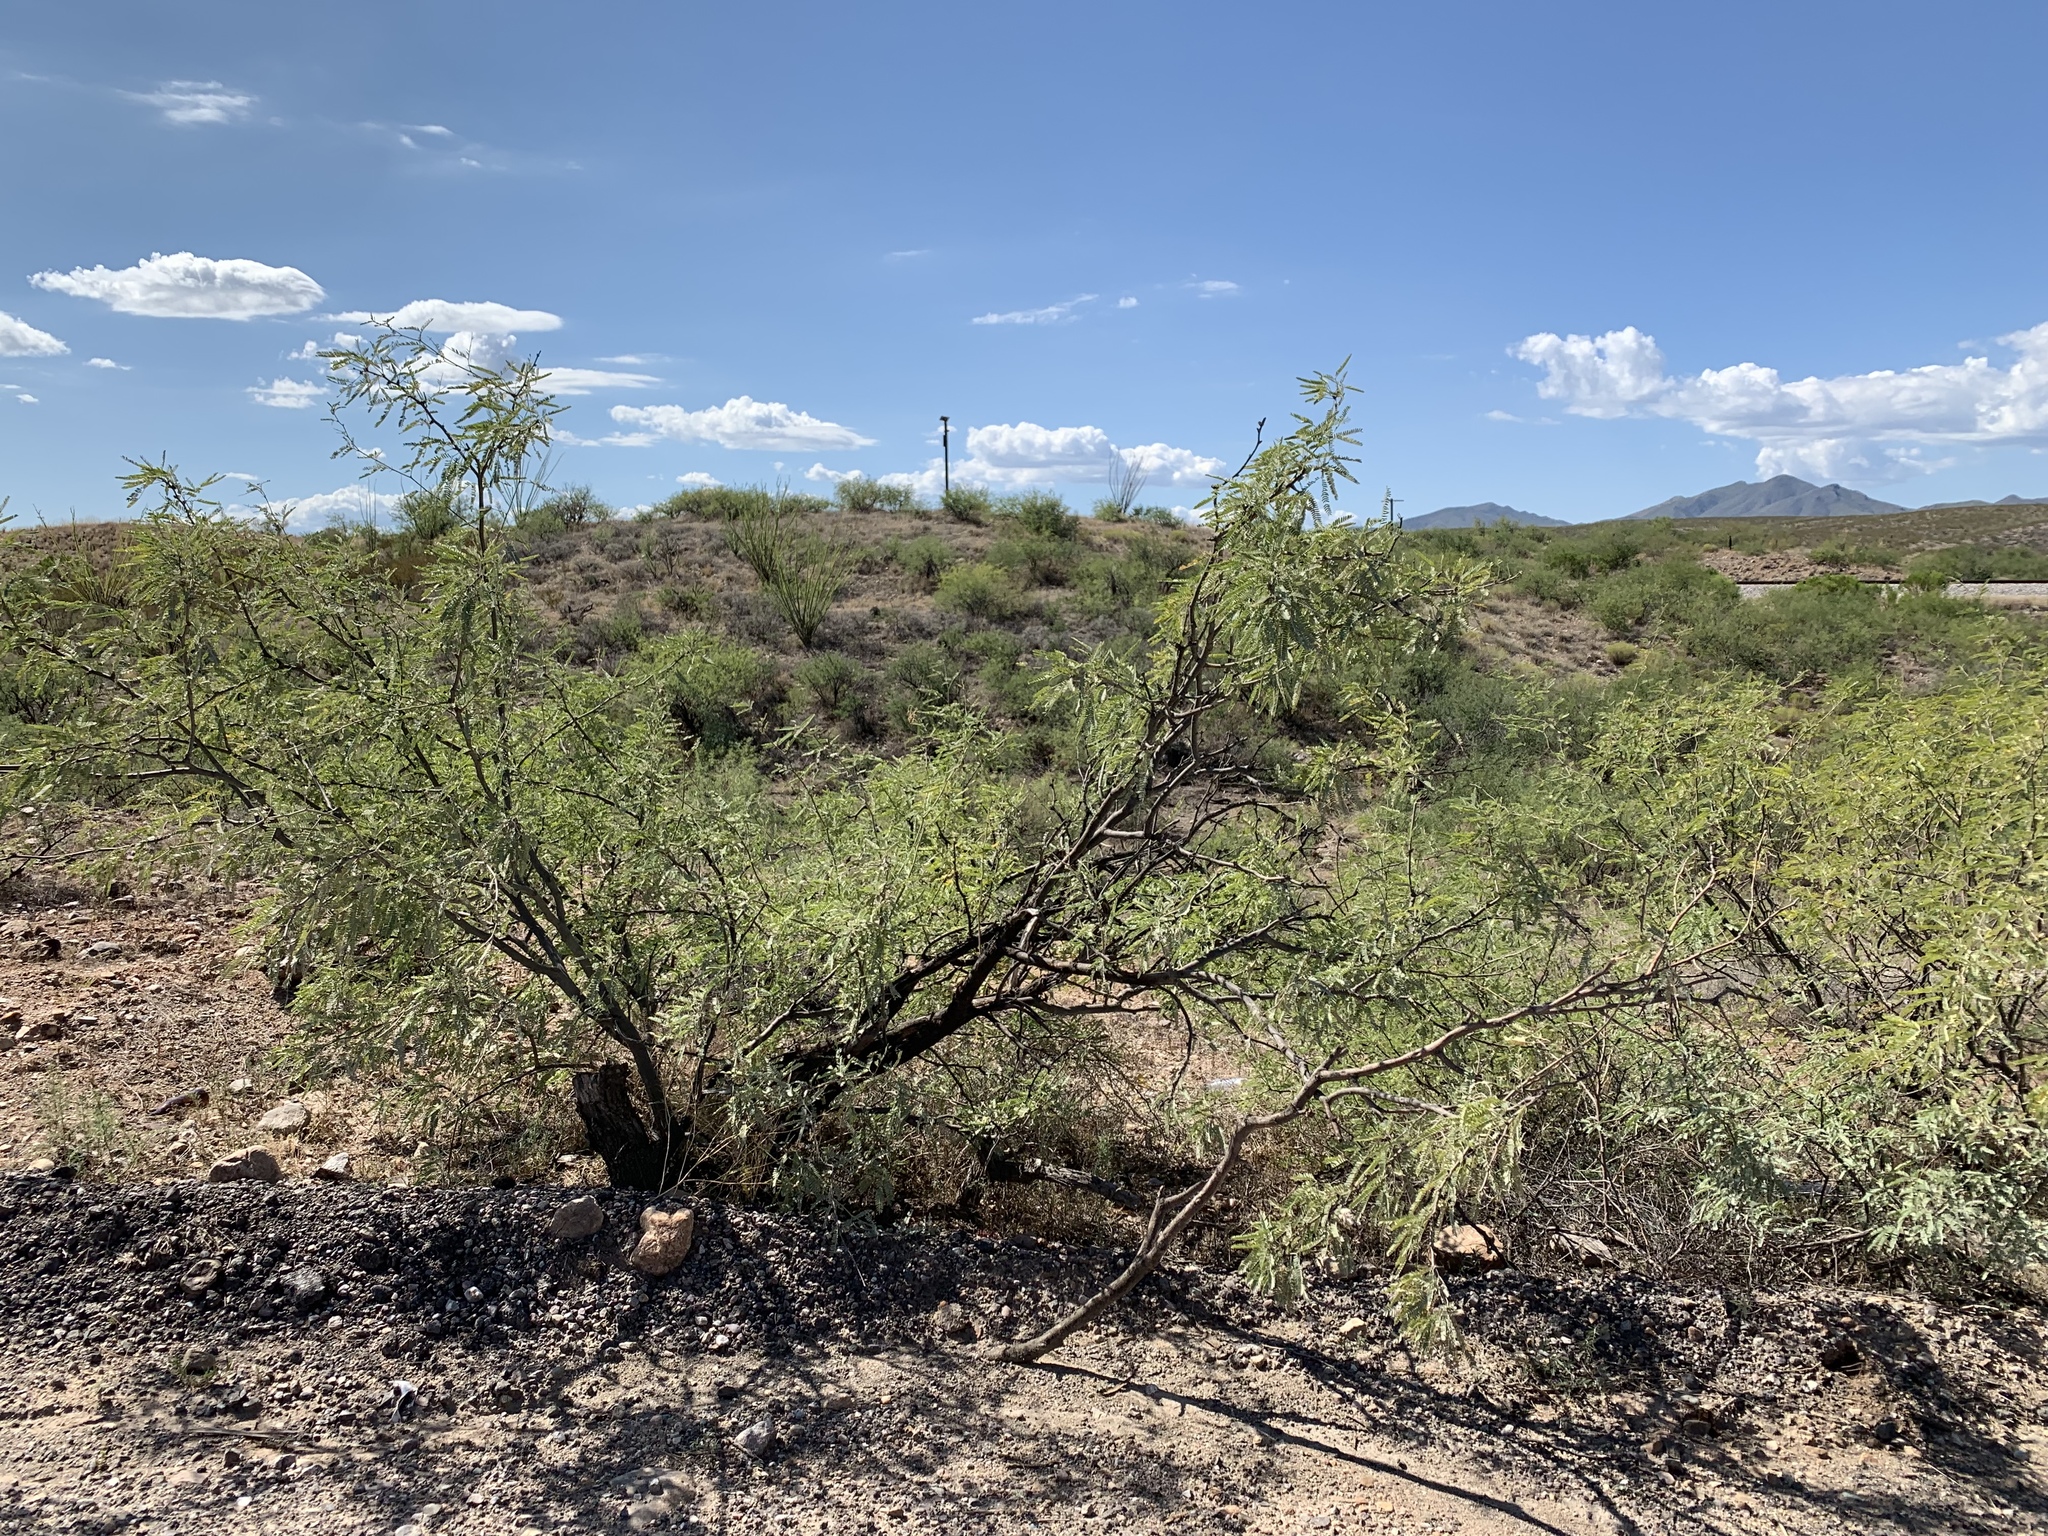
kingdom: Plantae
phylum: Tracheophyta
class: Magnoliopsida
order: Fabales
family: Fabaceae
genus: Prosopis
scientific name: Prosopis velutina
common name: Velvet mesquite
